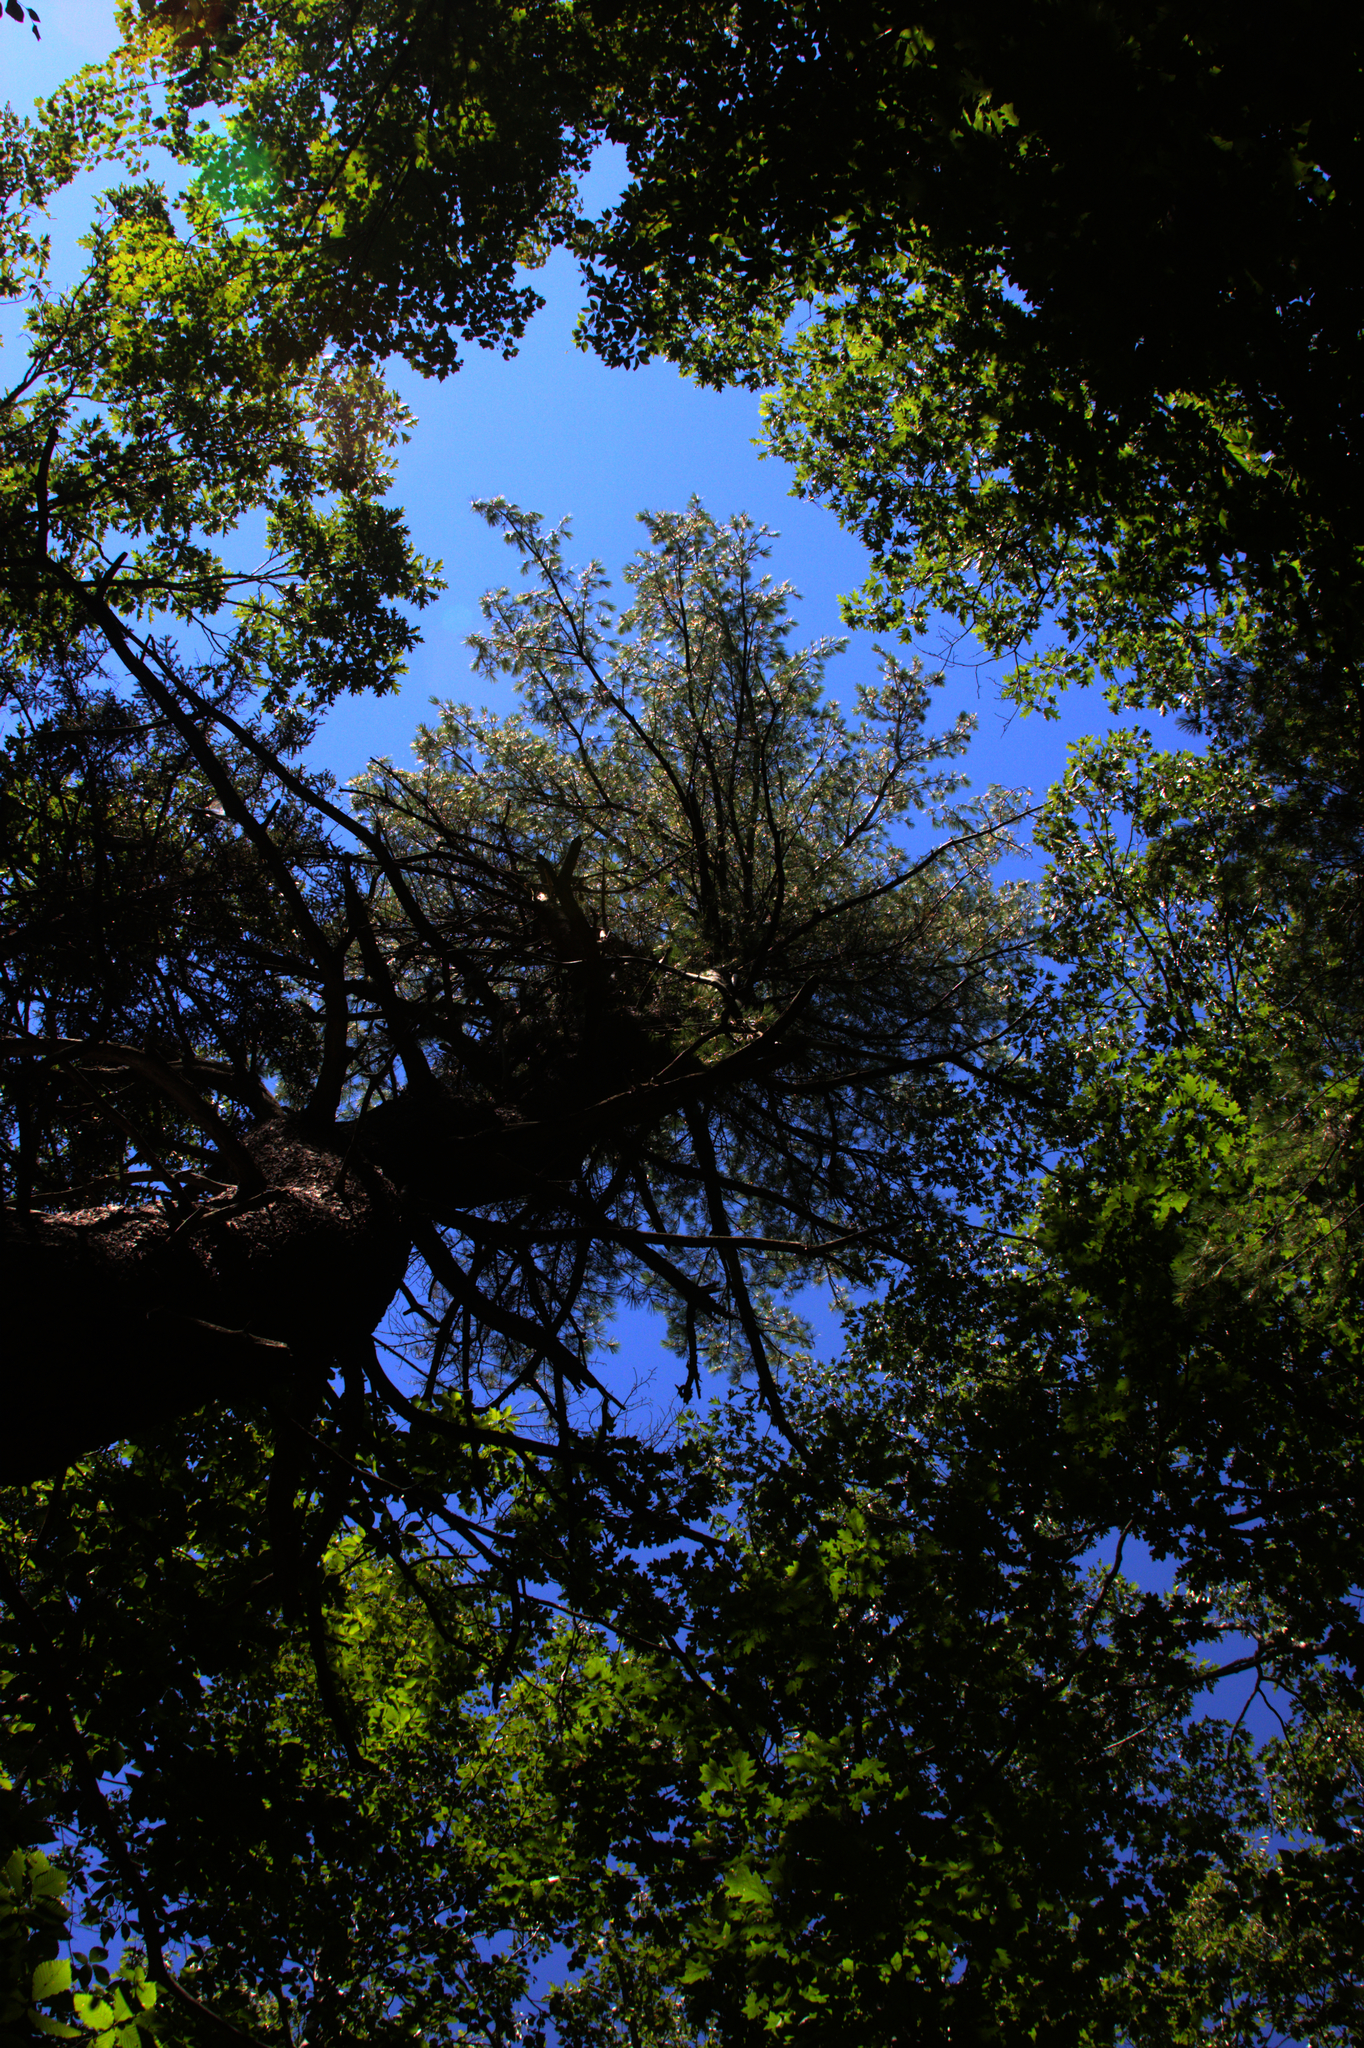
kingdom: Plantae
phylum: Tracheophyta
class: Pinopsida
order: Pinales
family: Pinaceae
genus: Pinus
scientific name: Pinus strobus
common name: Weymouth pine
